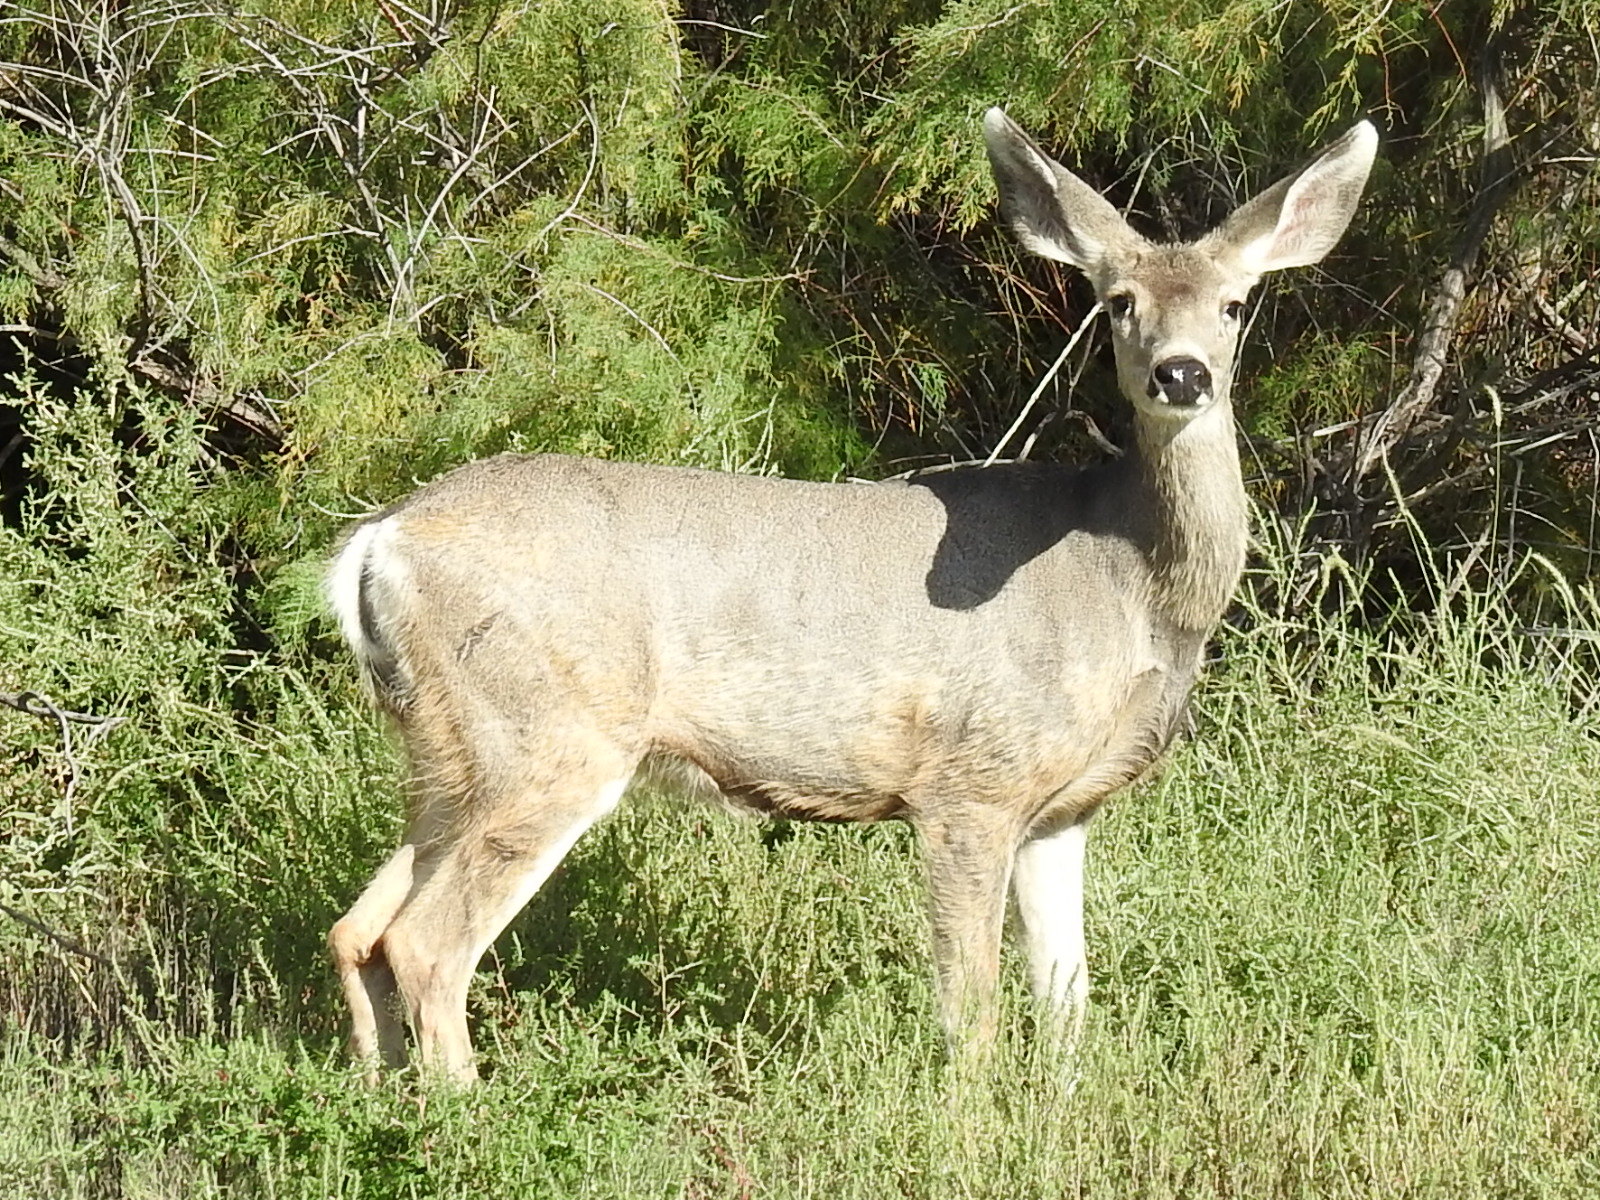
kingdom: Animalia
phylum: Chordata
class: Mammalia
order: Artiodactyla
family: Cervidae
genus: Odocoileus
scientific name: Odocoileus hemionus
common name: Mule deer
